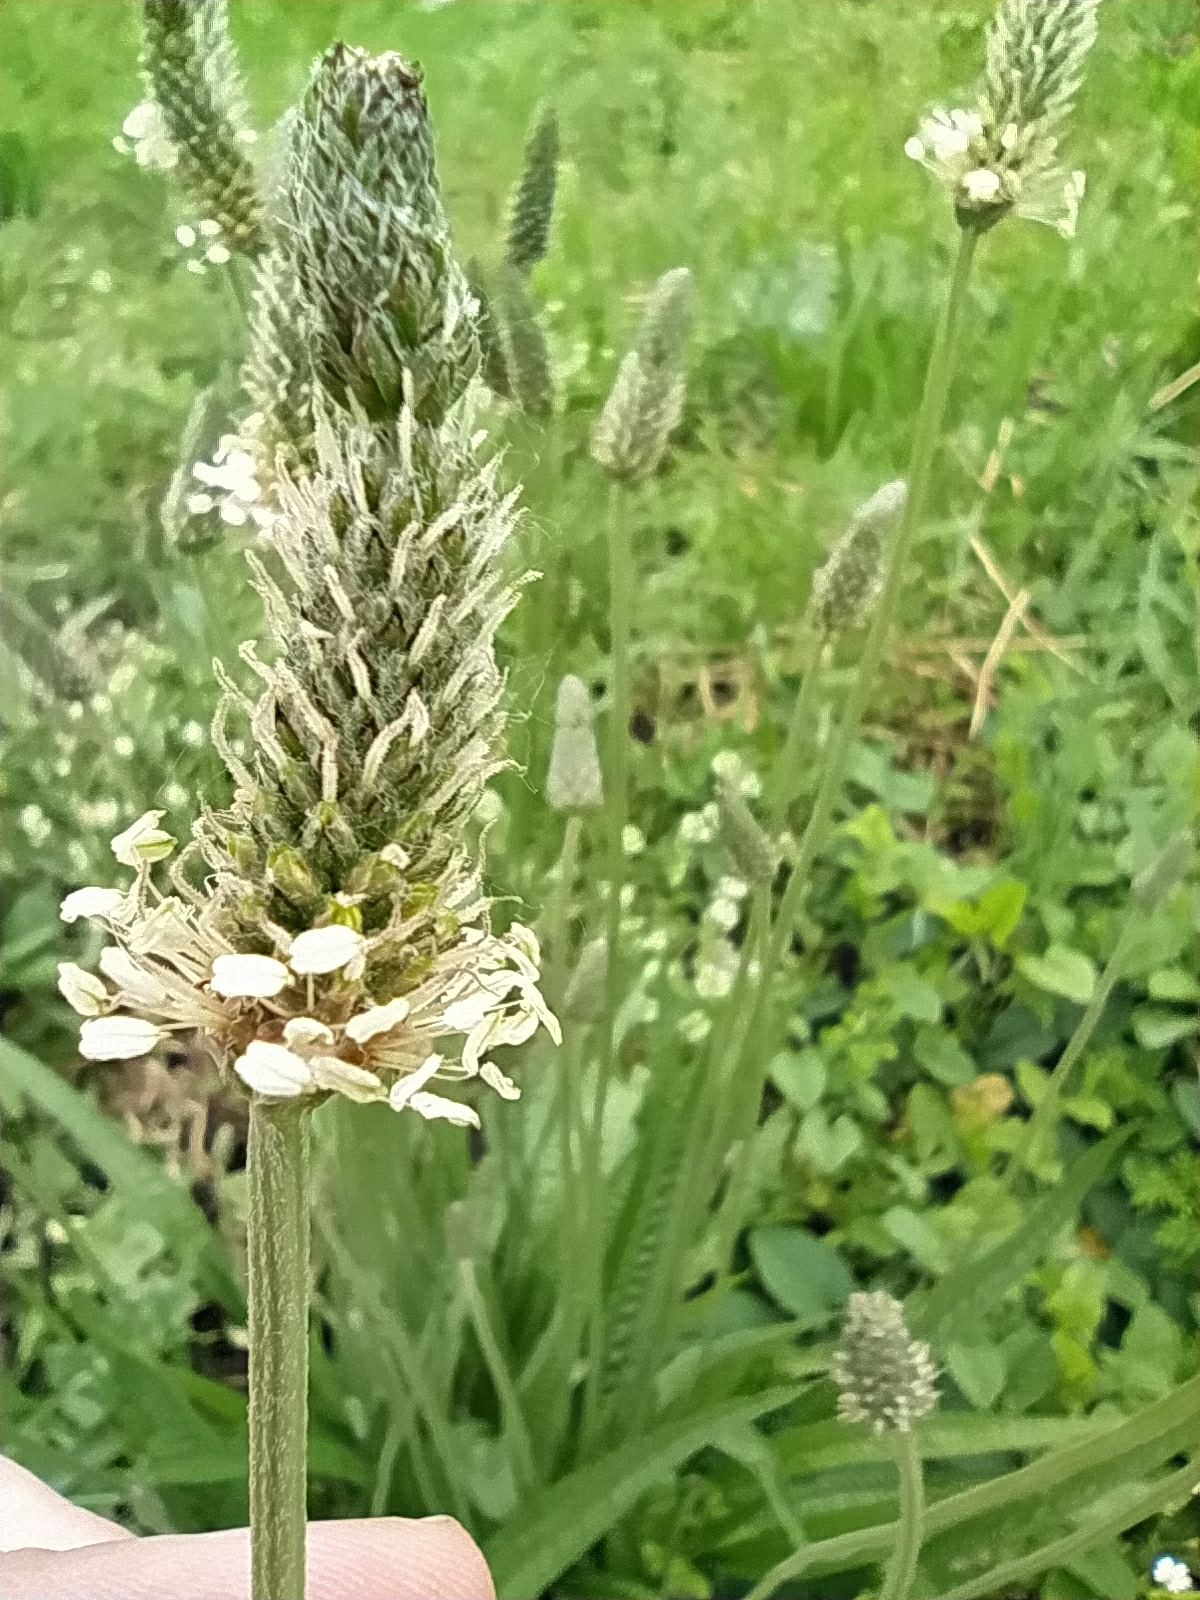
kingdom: Plantae
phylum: Tracheophyta
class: Magnoliopsida
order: Lamiales
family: Plantaginaceae
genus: Plantago
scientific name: Plantago lanceolata
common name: Ribwort plantain
